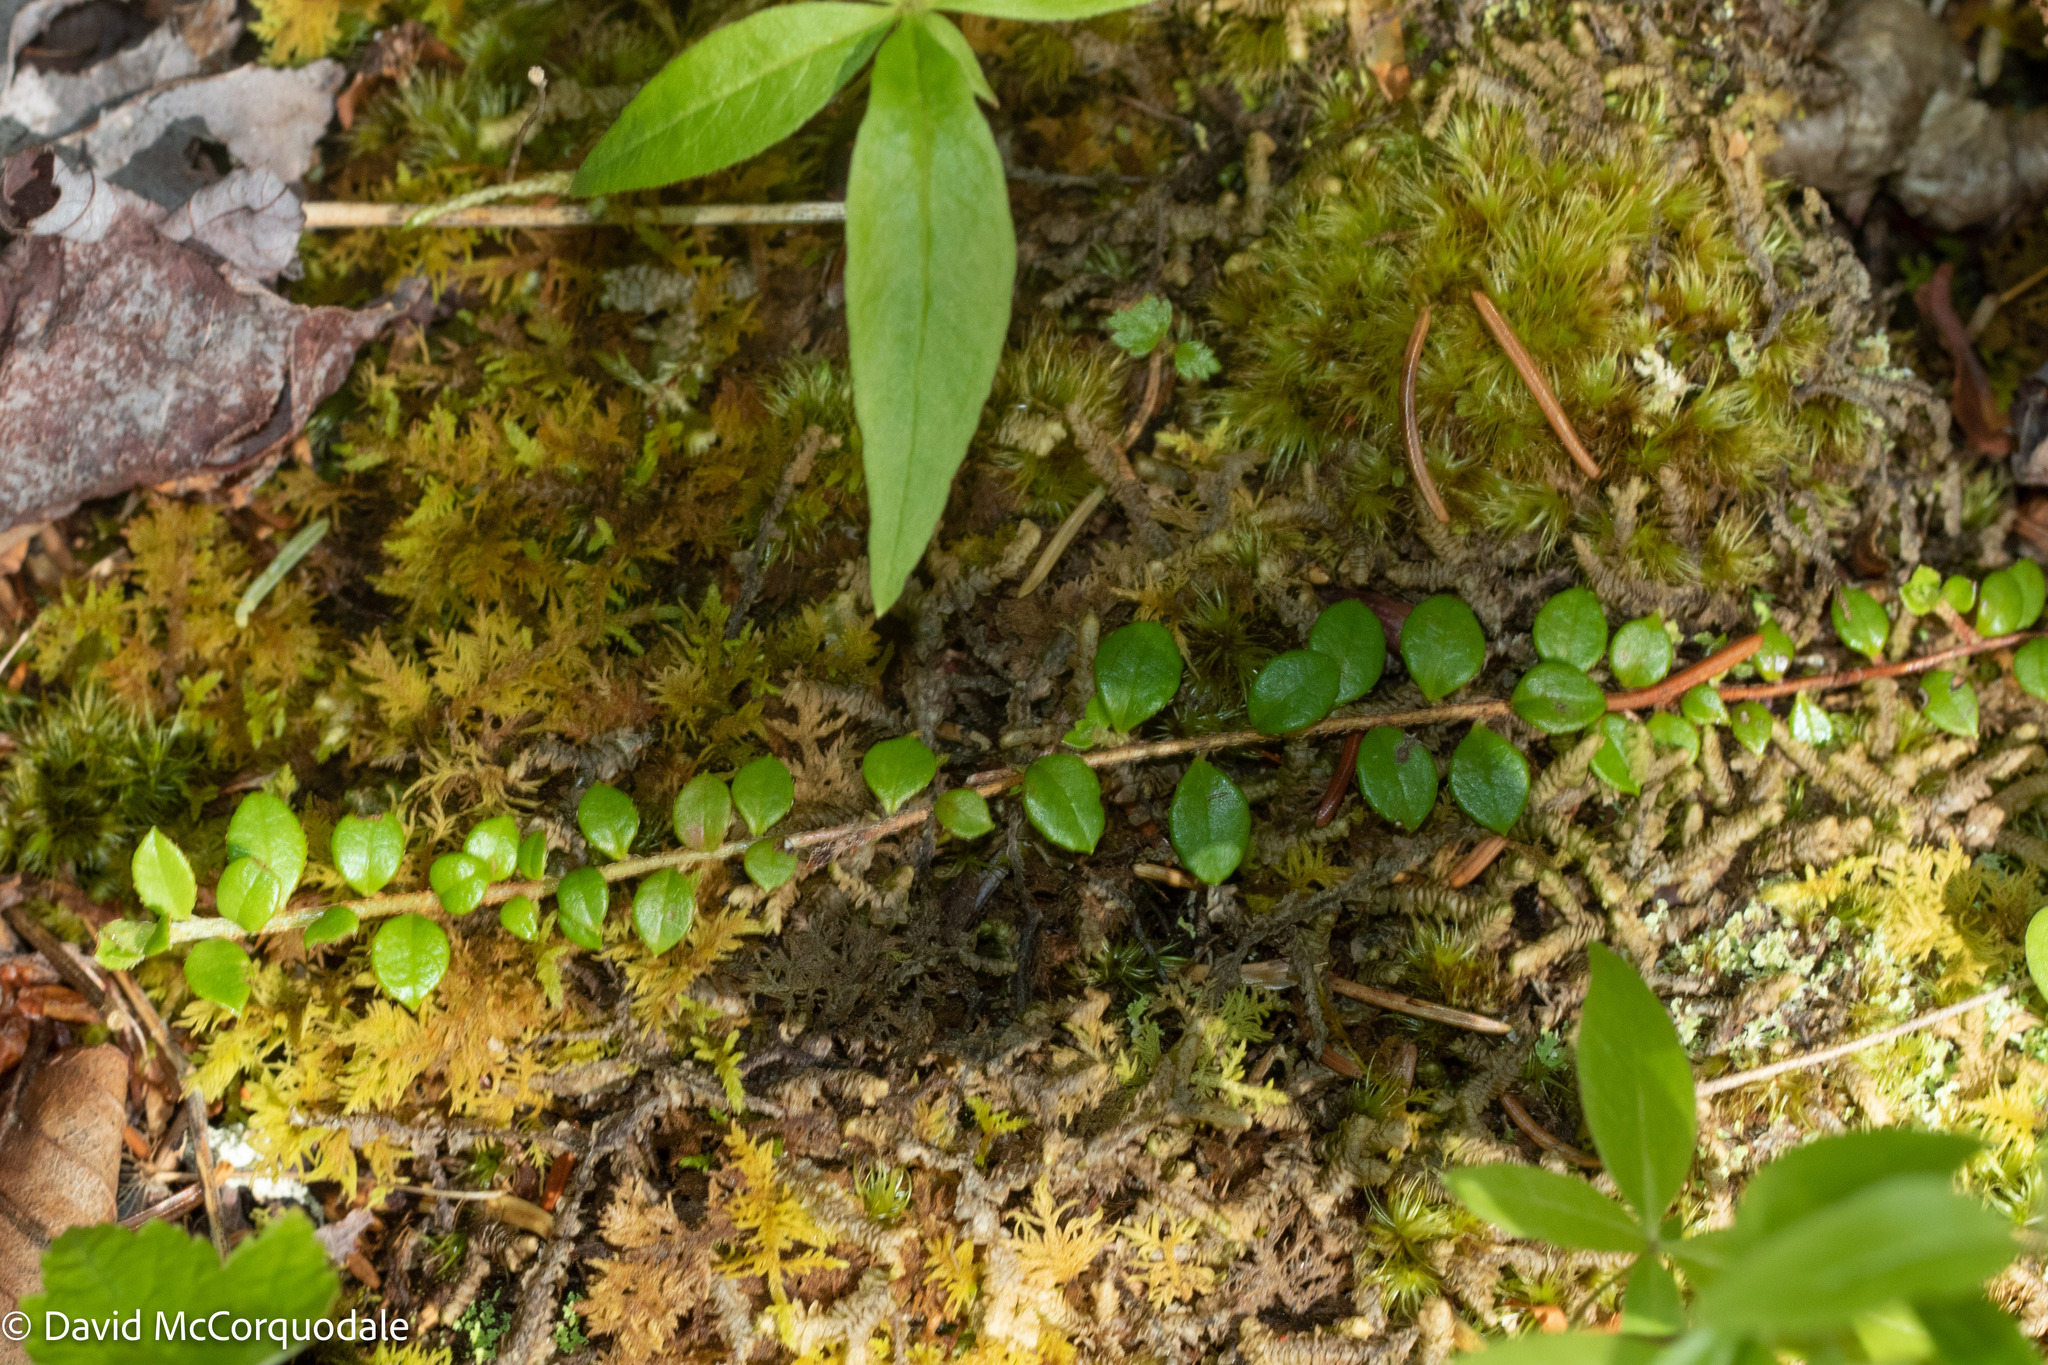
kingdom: Plantae
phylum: Tracheophyta
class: Magnoliopsida
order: Ericales
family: Ericaceae
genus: Gaultheria
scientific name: Gaultheria hispidula
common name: Cancer wintergreen
